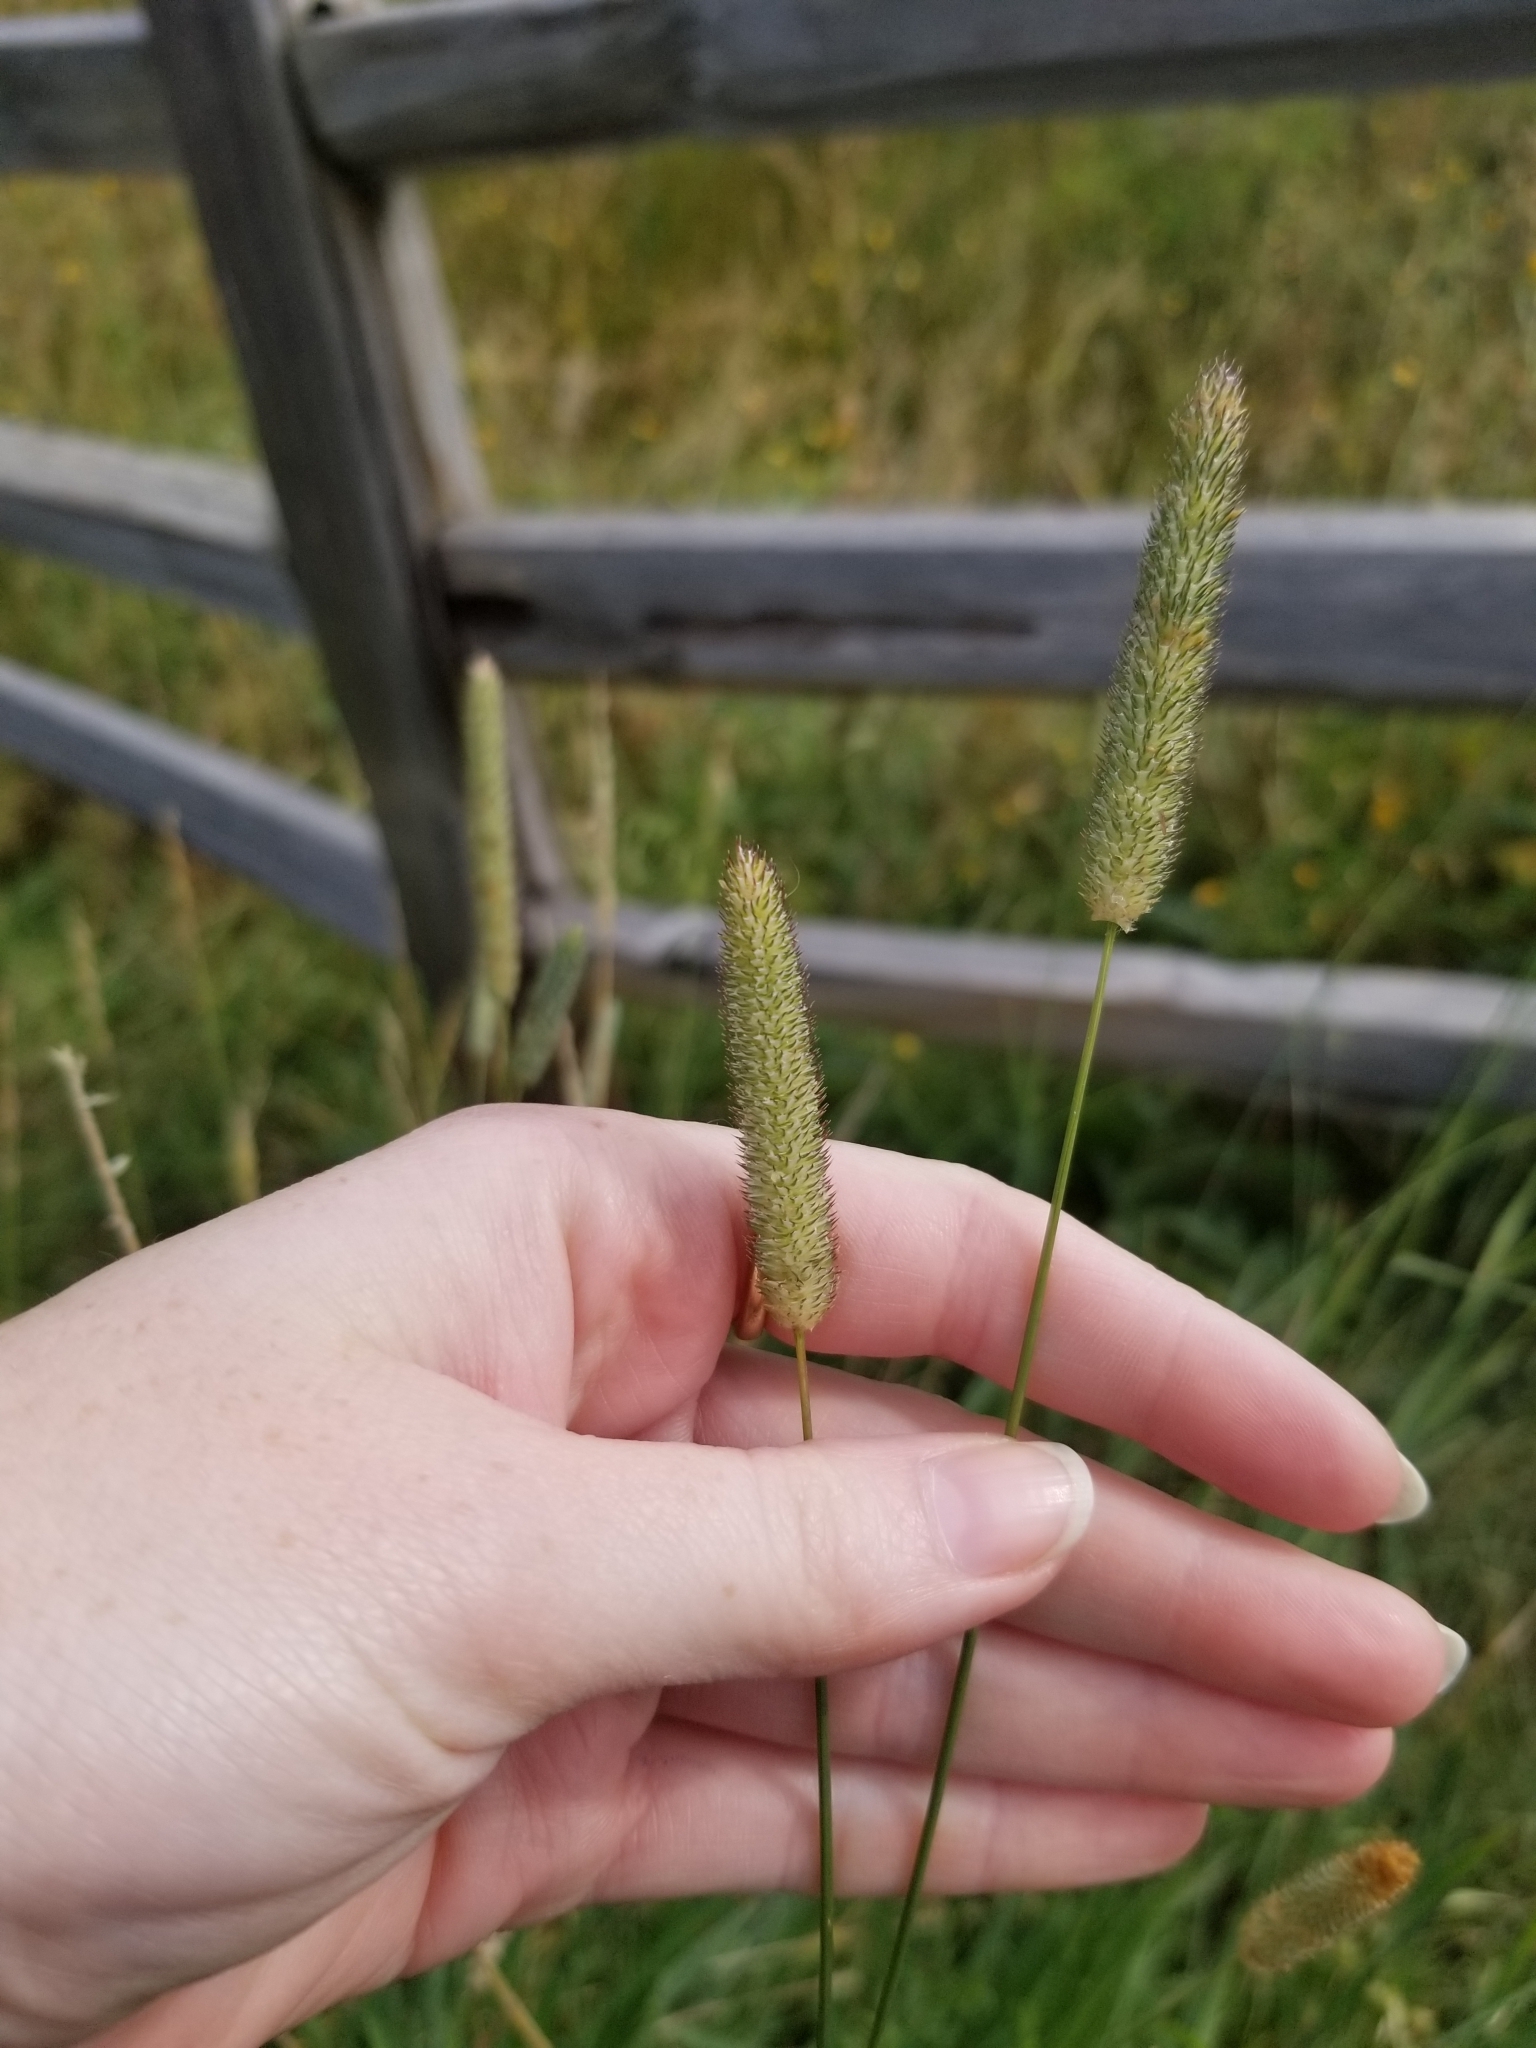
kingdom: Plantae
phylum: Tracheophyta
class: Liliopsida
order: Poales
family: Poaceae
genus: Phleum
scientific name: Phleum pratense
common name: Timothy grass
